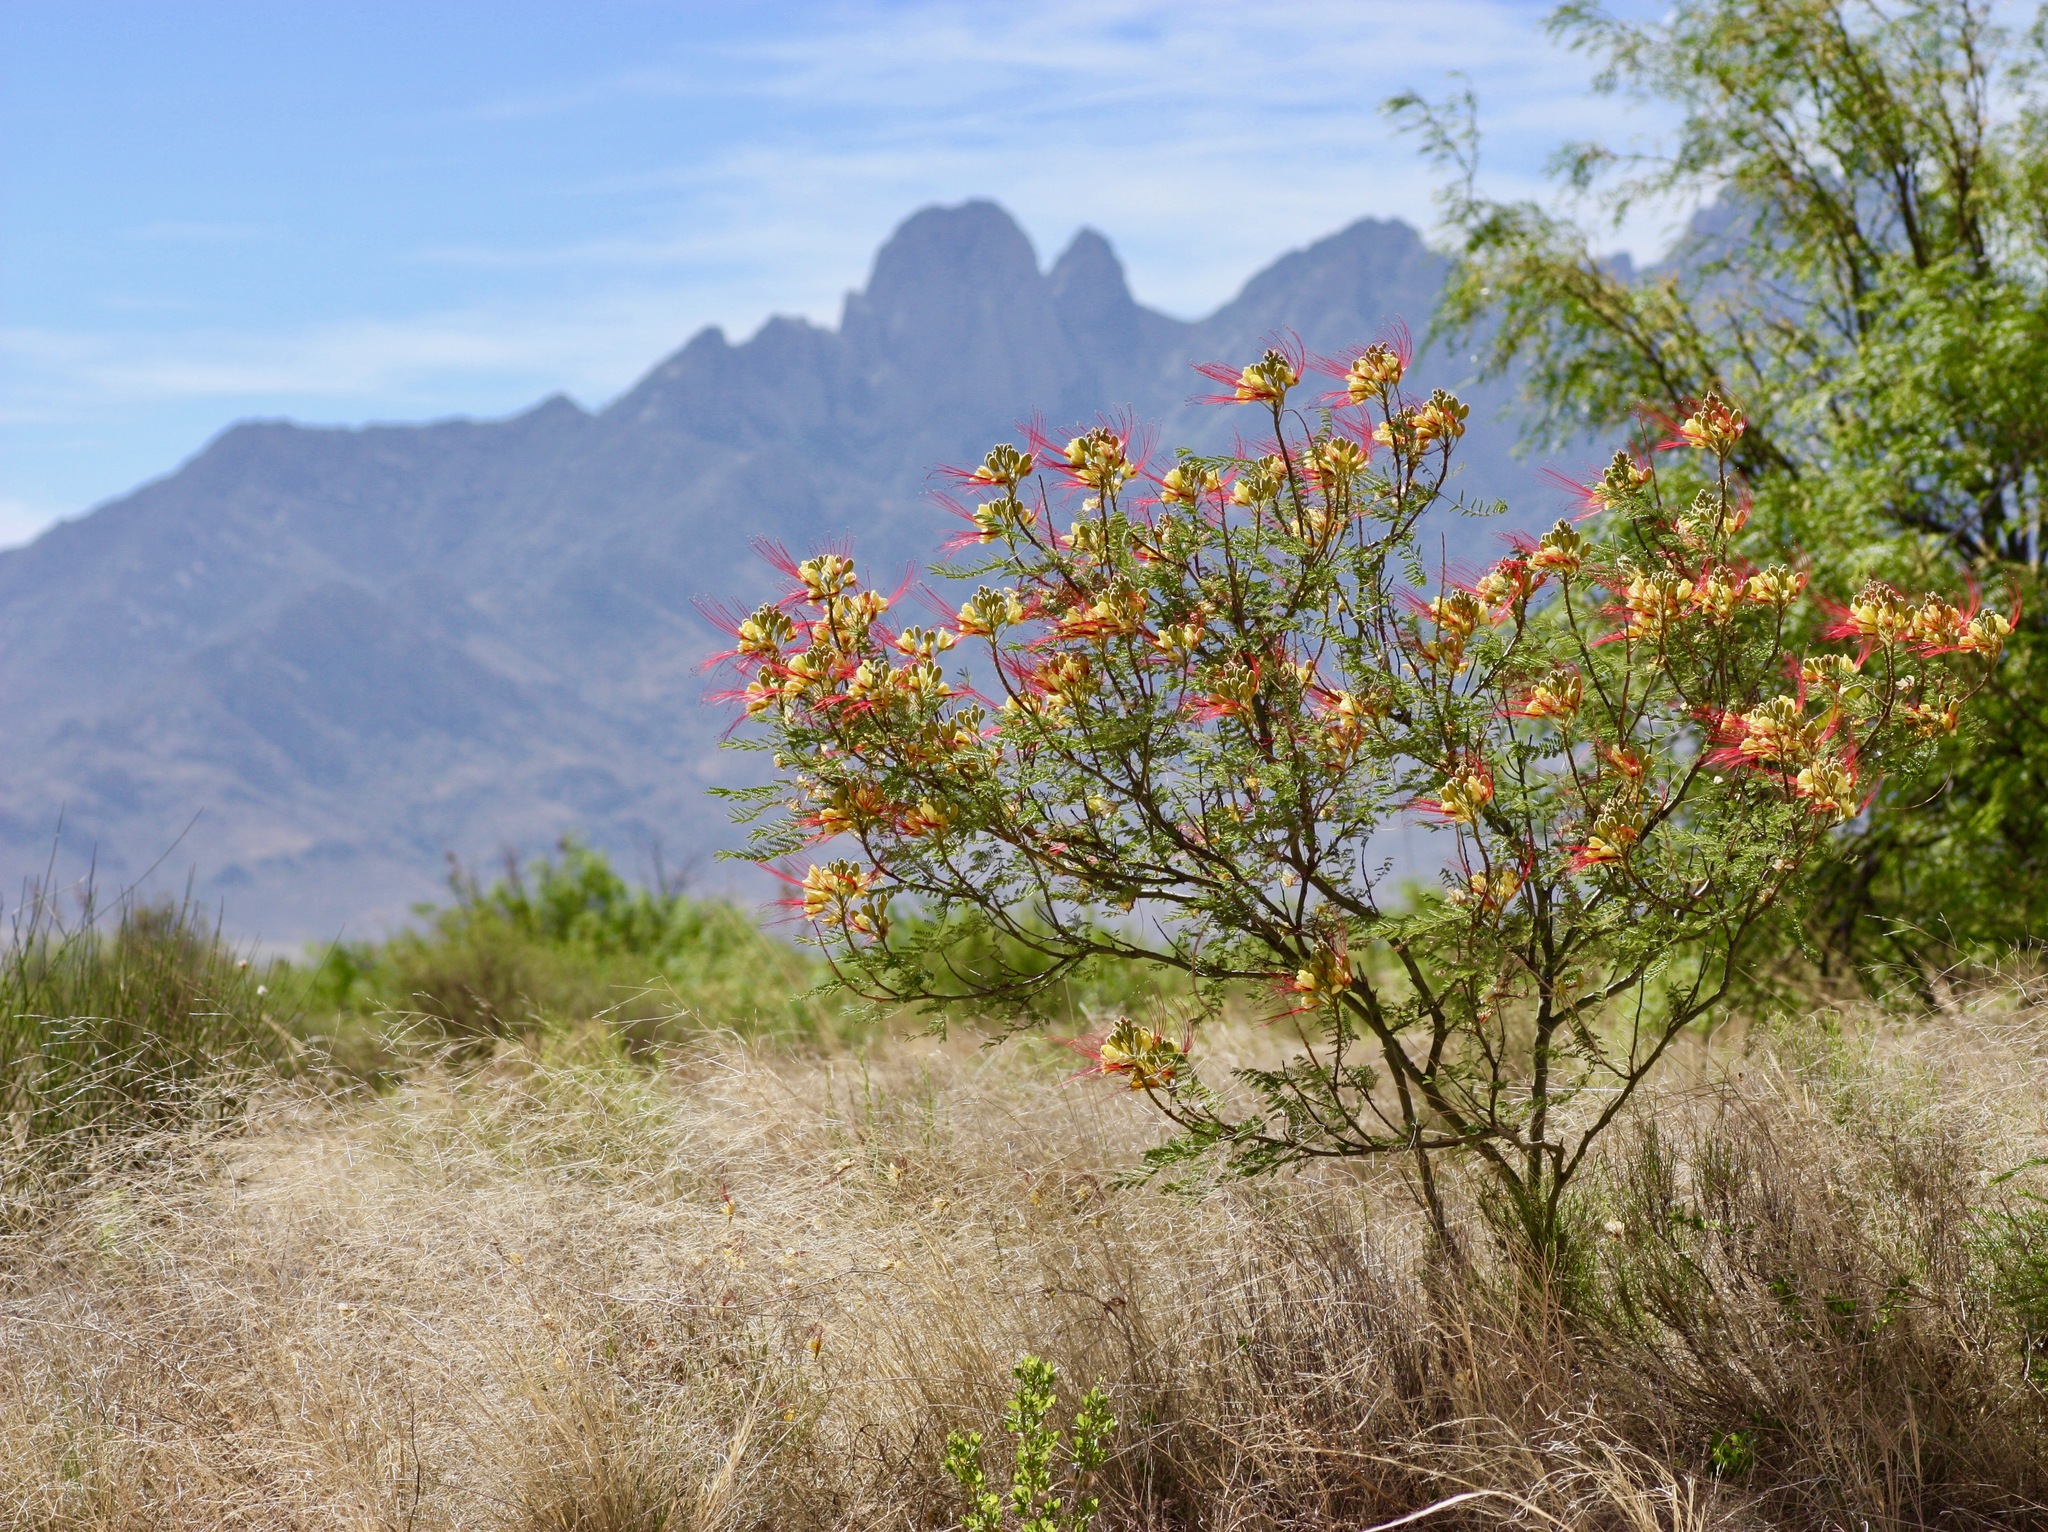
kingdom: Plantae
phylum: Tracheophyta
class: Magnoliopsida
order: Fabales
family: Fabaceae
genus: Erythrostemon
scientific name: Erythrostemon gilliesii
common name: Bird-of-paradise shrub
